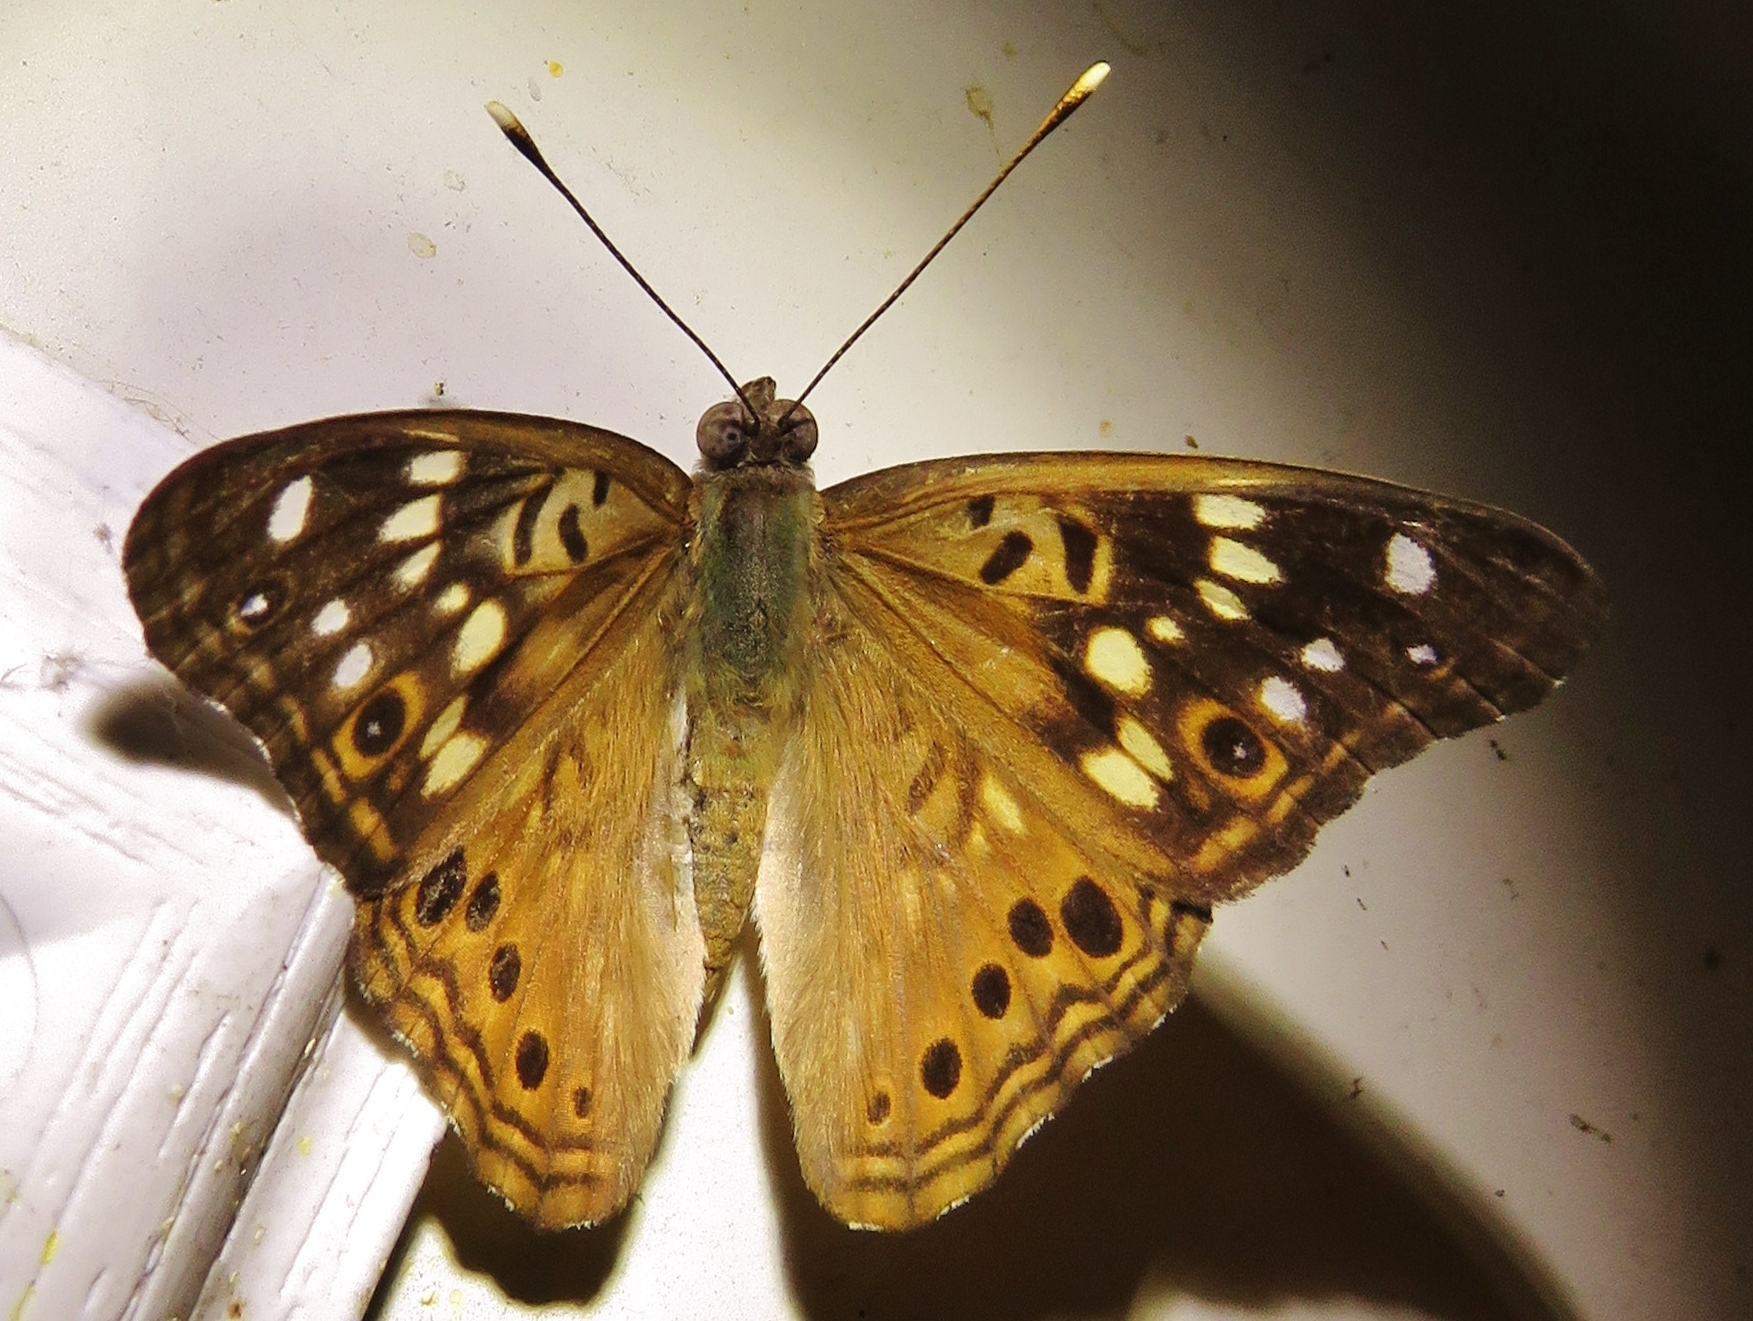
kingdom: Animalia
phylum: Arthropoda
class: Insecta
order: Lepidoptera
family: Nymphalidae
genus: Asterocampa
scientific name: Asterocampa celtis
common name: Hackberry emperor
